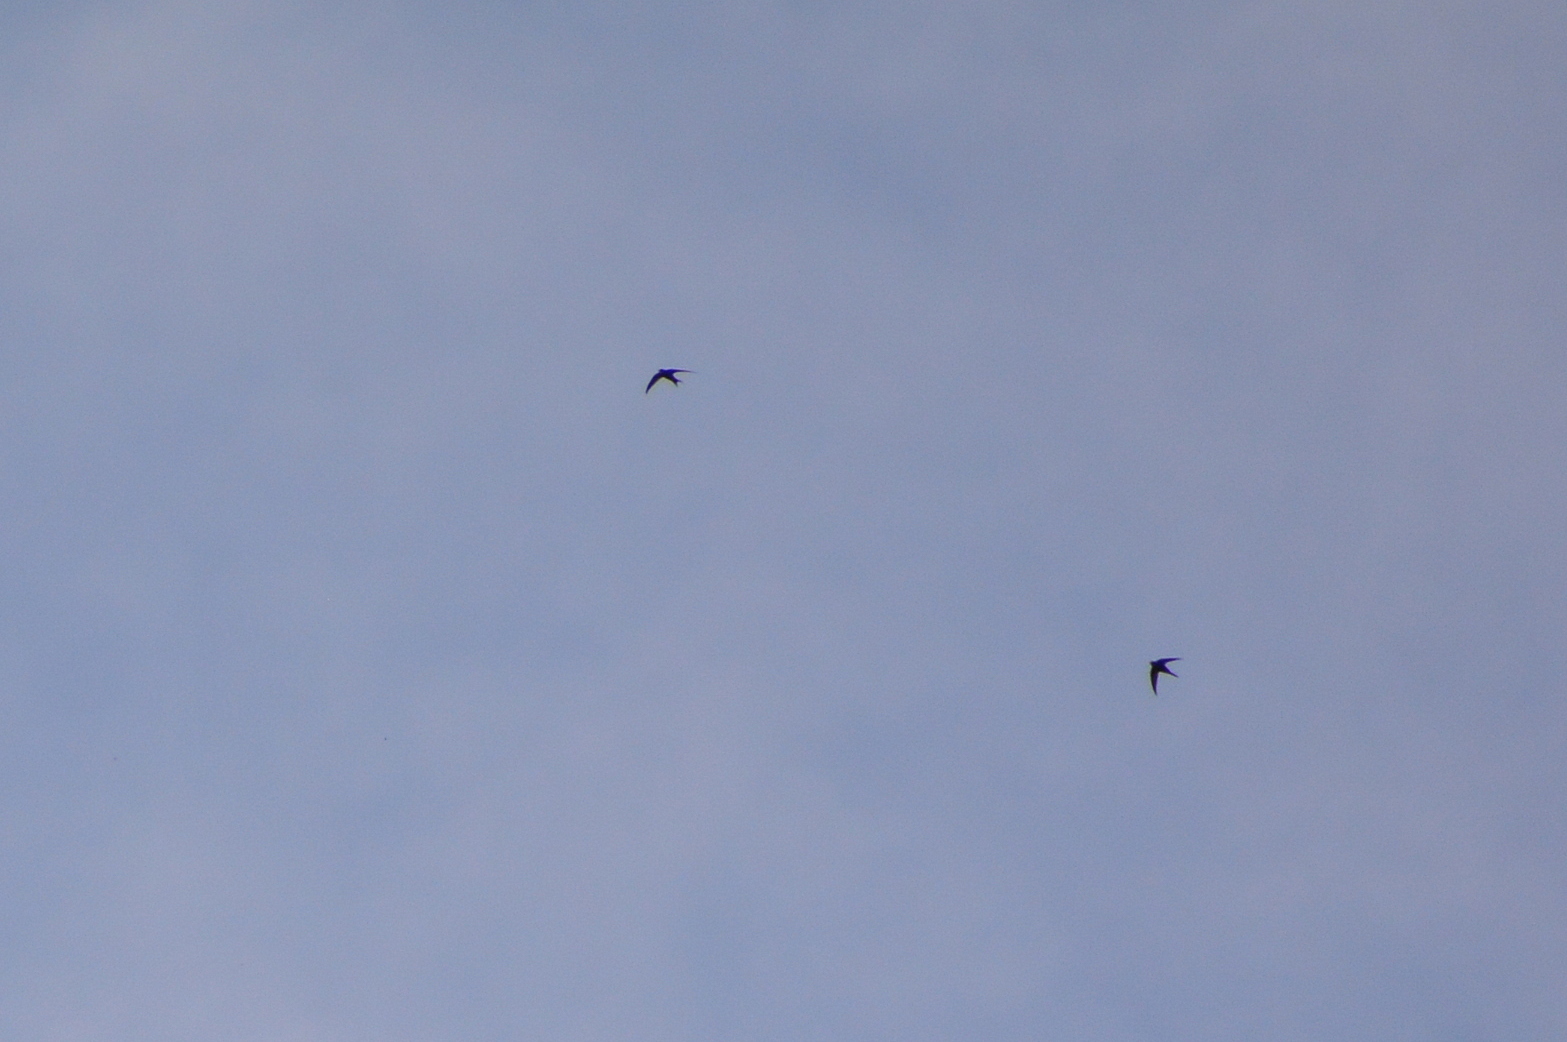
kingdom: Animalia
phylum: Chordata
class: Aves
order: Apodiformes
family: Apodidae
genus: Apus
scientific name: Apus apus
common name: Common swift
